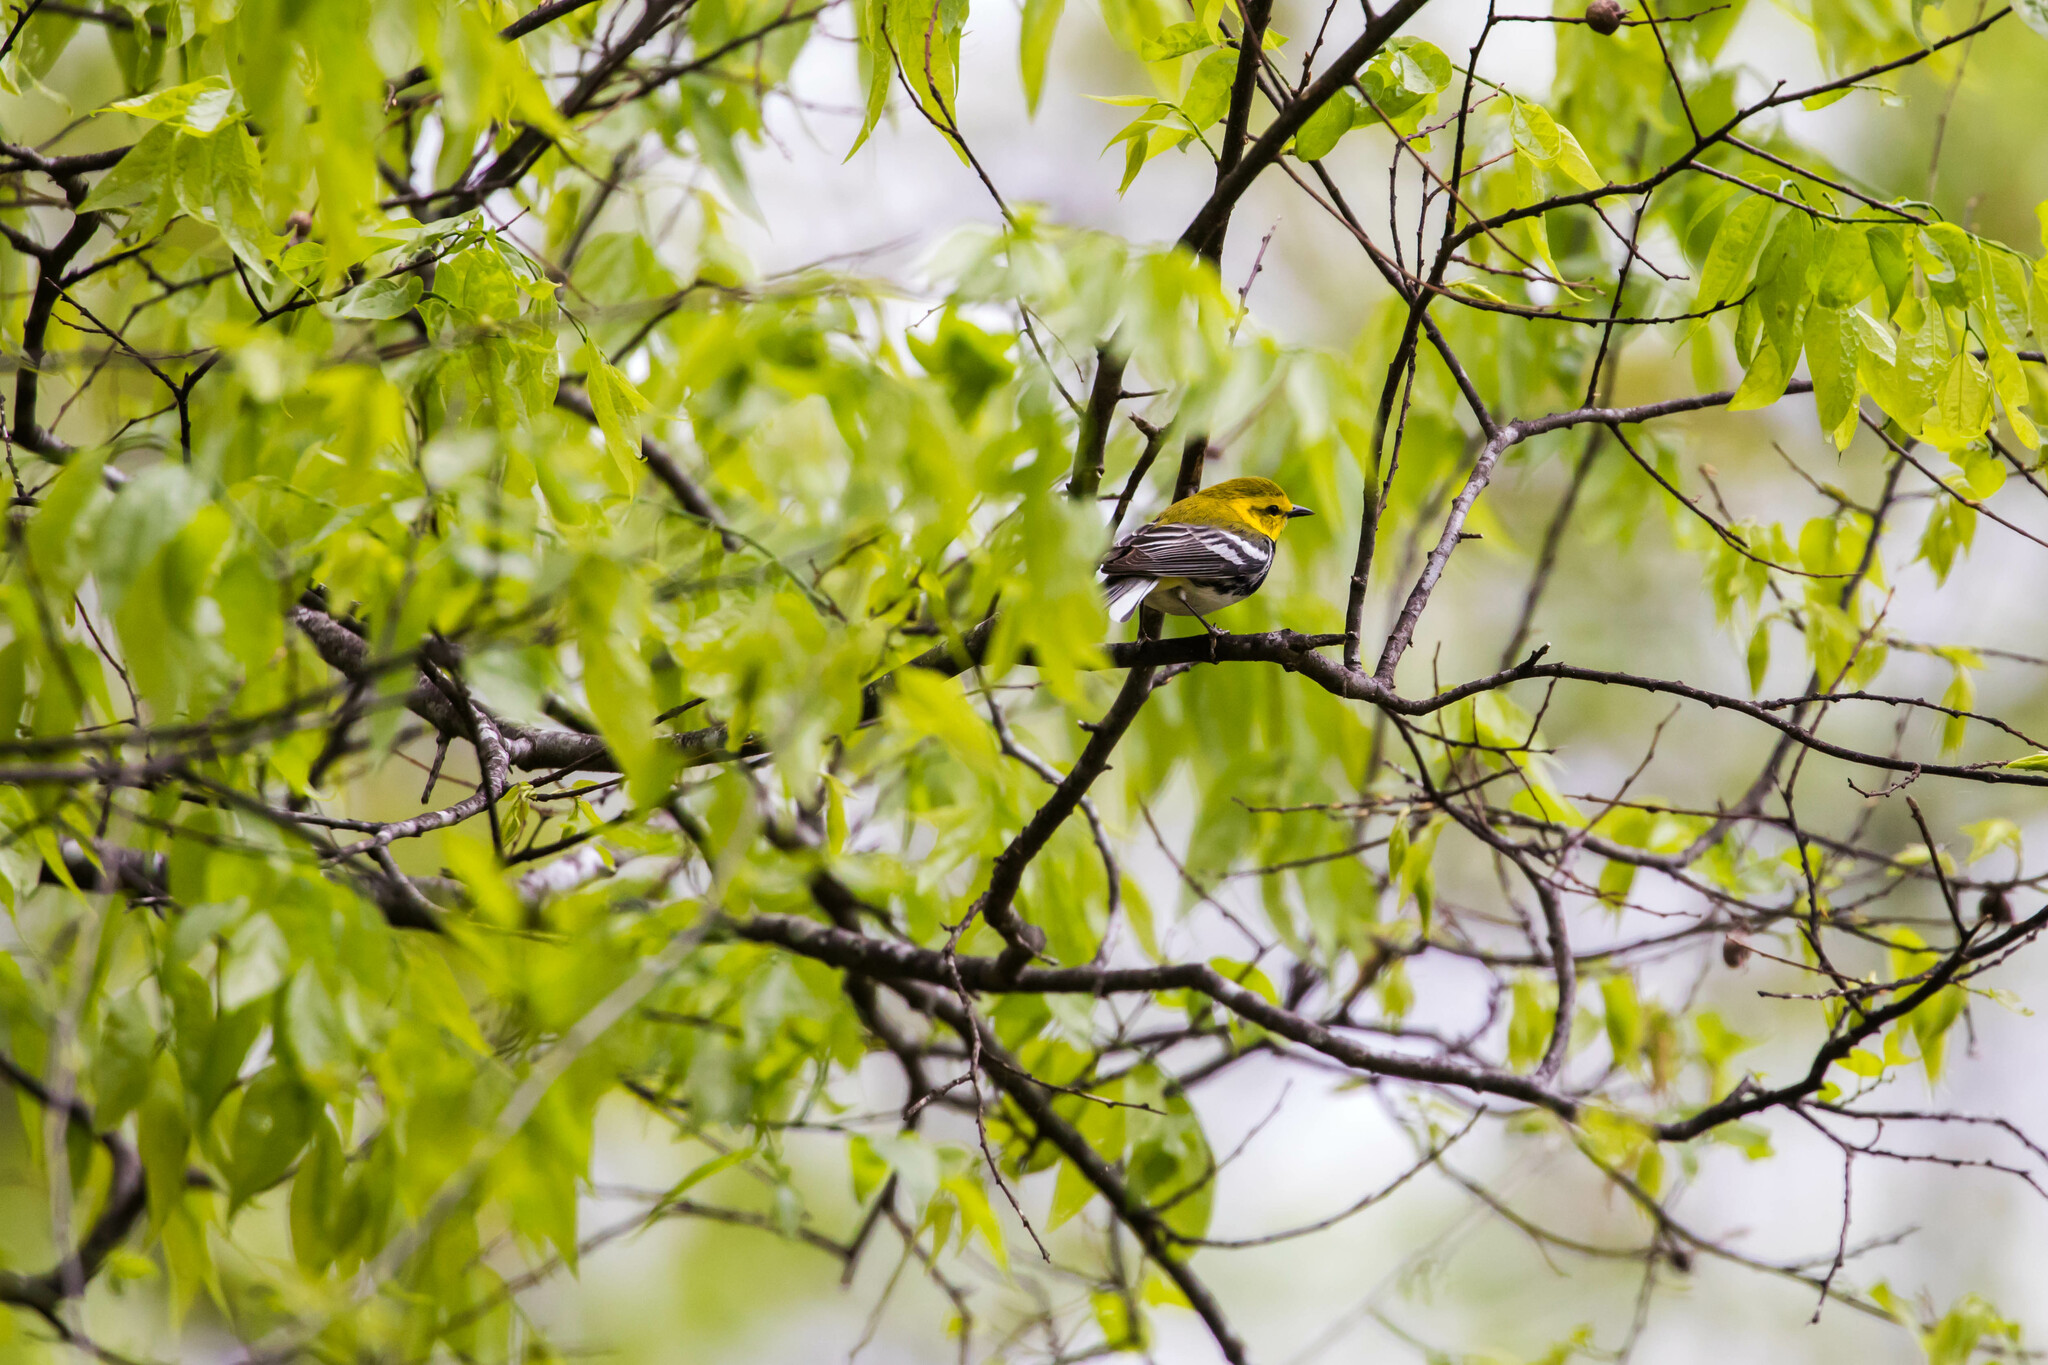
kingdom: Animalia
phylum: Chordata
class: Aves
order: Passeriformes
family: Parulidae
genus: Setophaga
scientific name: Setophaga virens
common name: Black-throated green warbler
